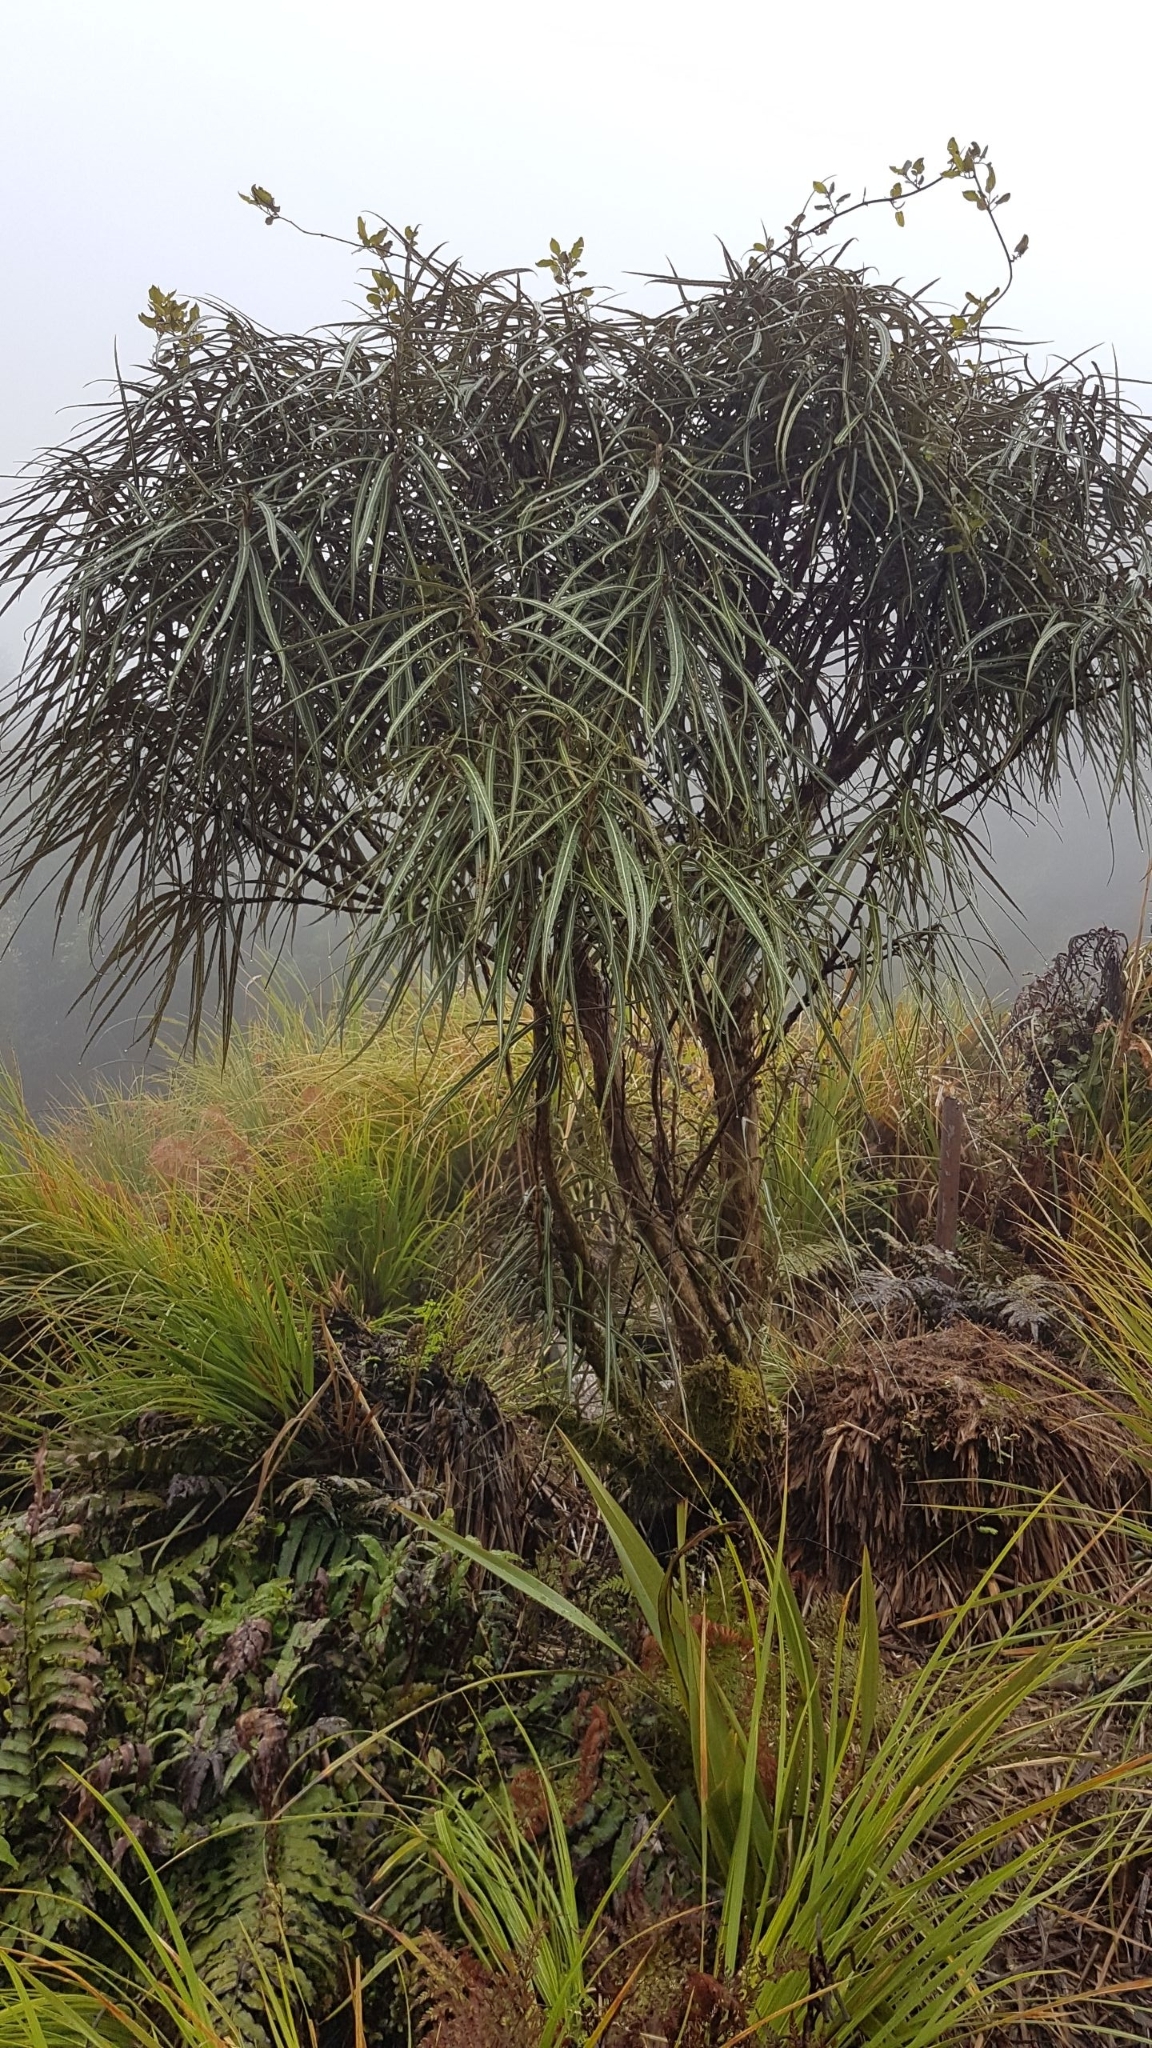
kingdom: Plantae
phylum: Tracheophyta
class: Magnoliopsida
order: Asterales
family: Asteraceae
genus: Olearia
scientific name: Olearia lacunosa
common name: Lancewood tree daisy
